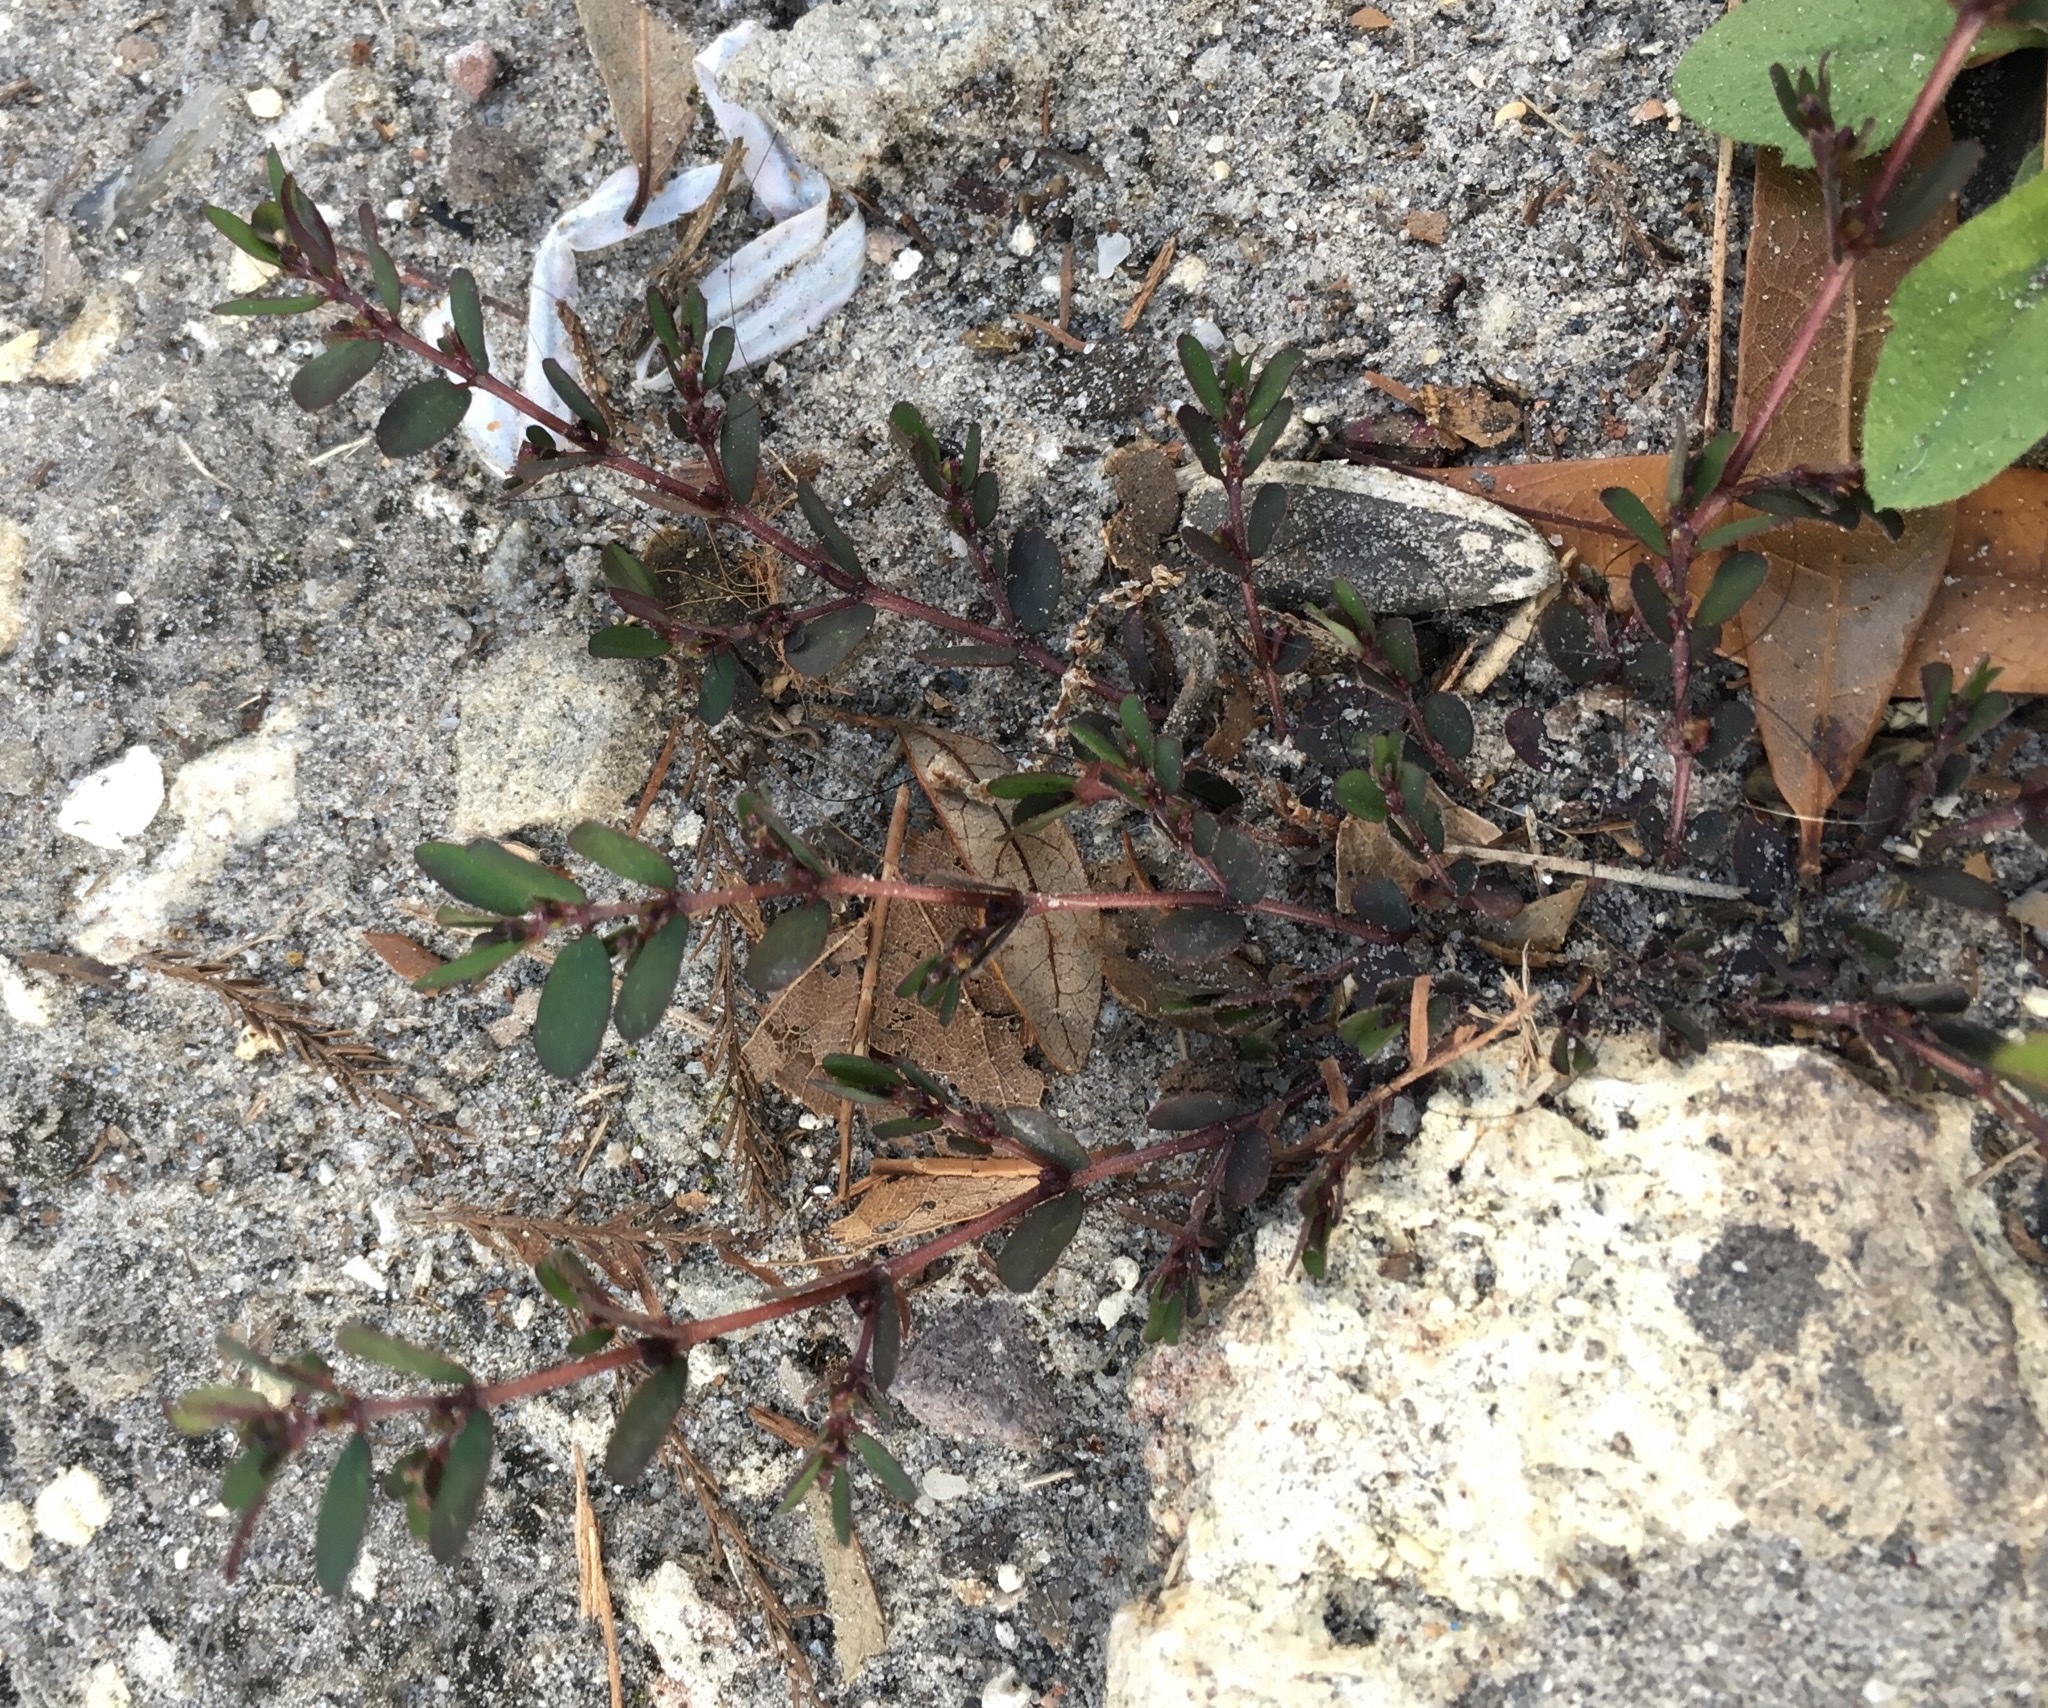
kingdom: Plantae
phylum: Tracheophyta
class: Magnoliopsida
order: Malpighiales
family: Euphorbiaceae
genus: Euphorbia
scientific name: Euphorbia prostrata
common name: Prostrate sandmat
